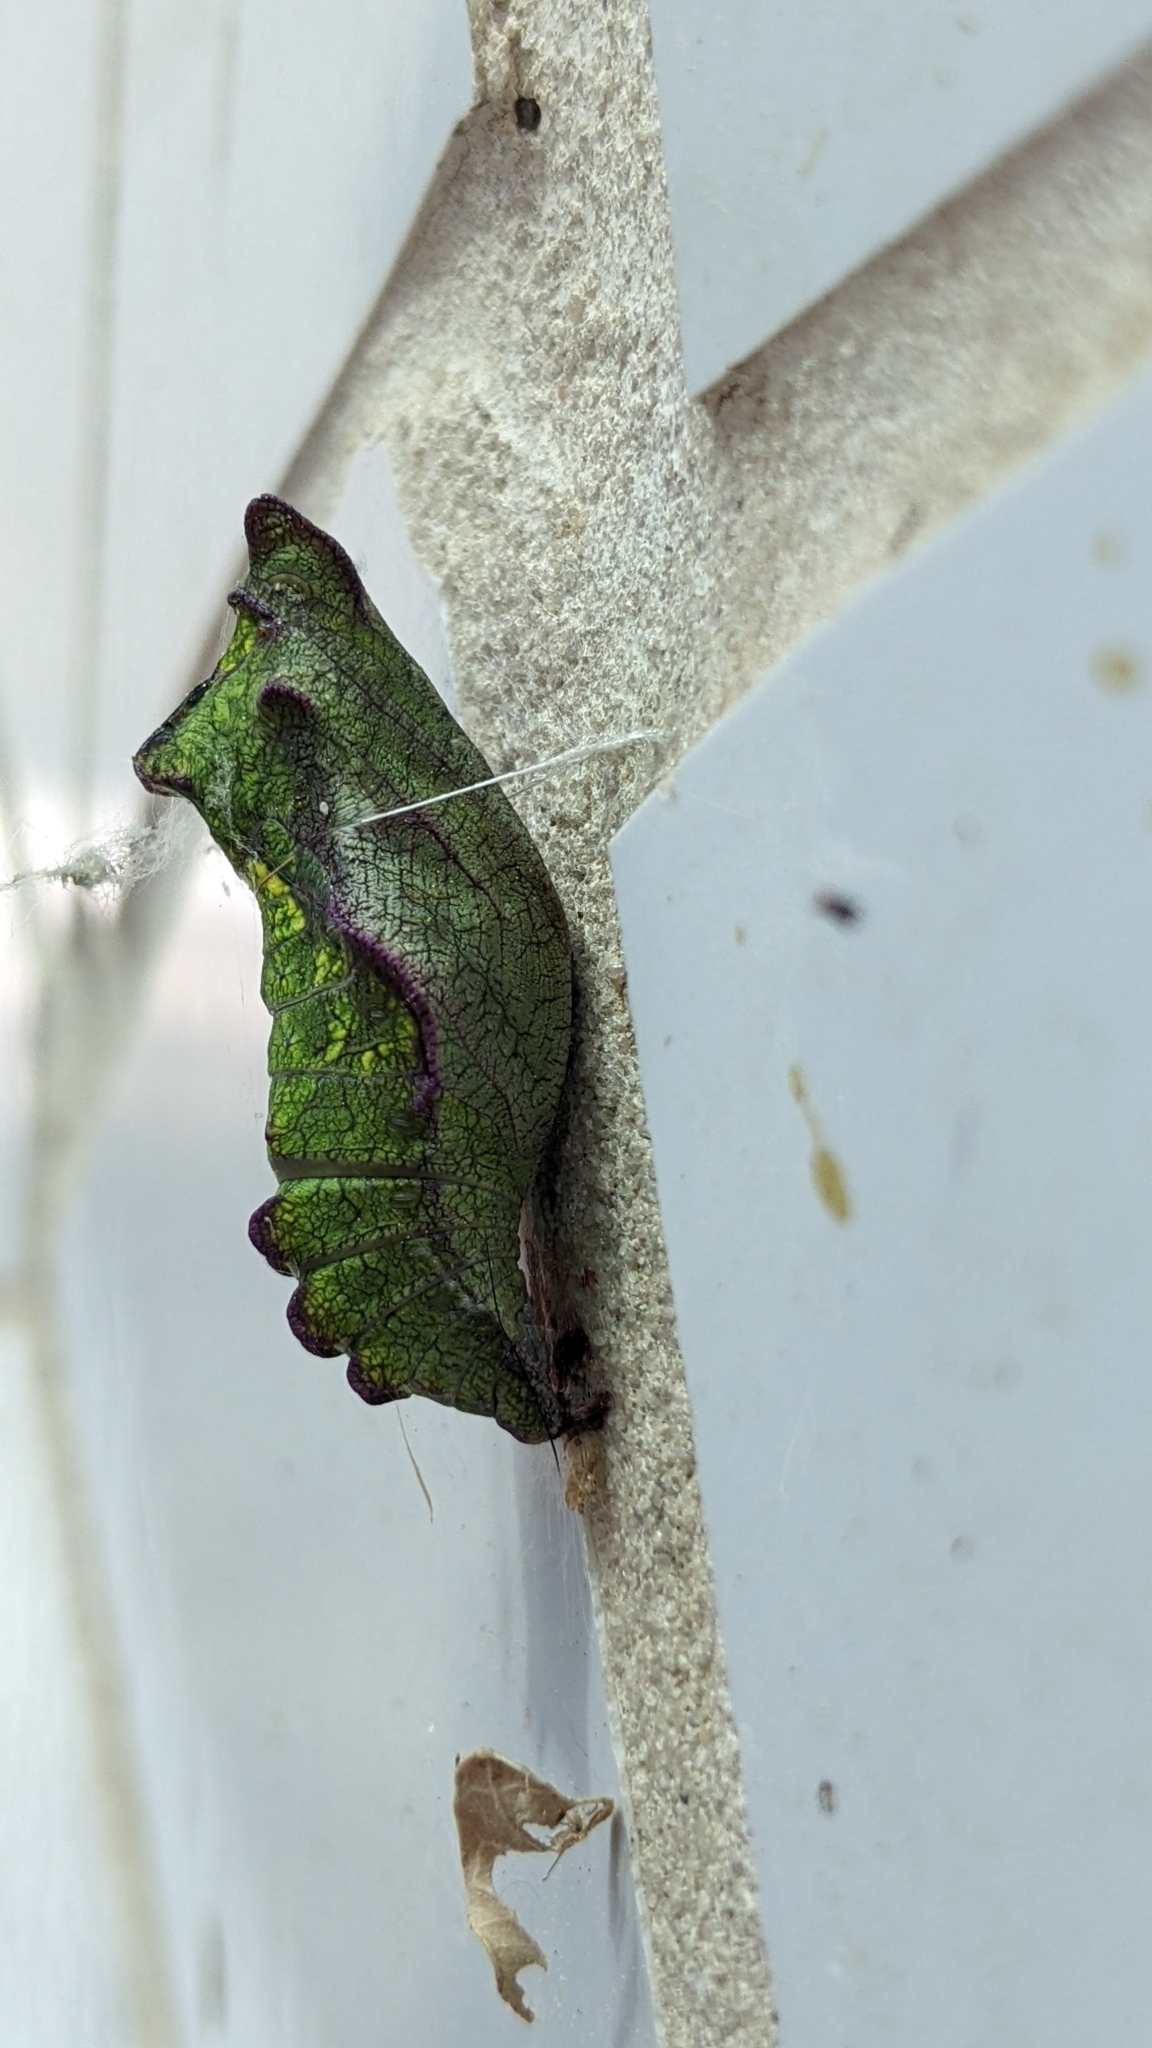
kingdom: Animalia
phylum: Arthropoda
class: Insecta
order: Lepidoptera
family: Papilionidae
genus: Battus
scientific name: Battus philenor
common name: Pipevine swallowtail
